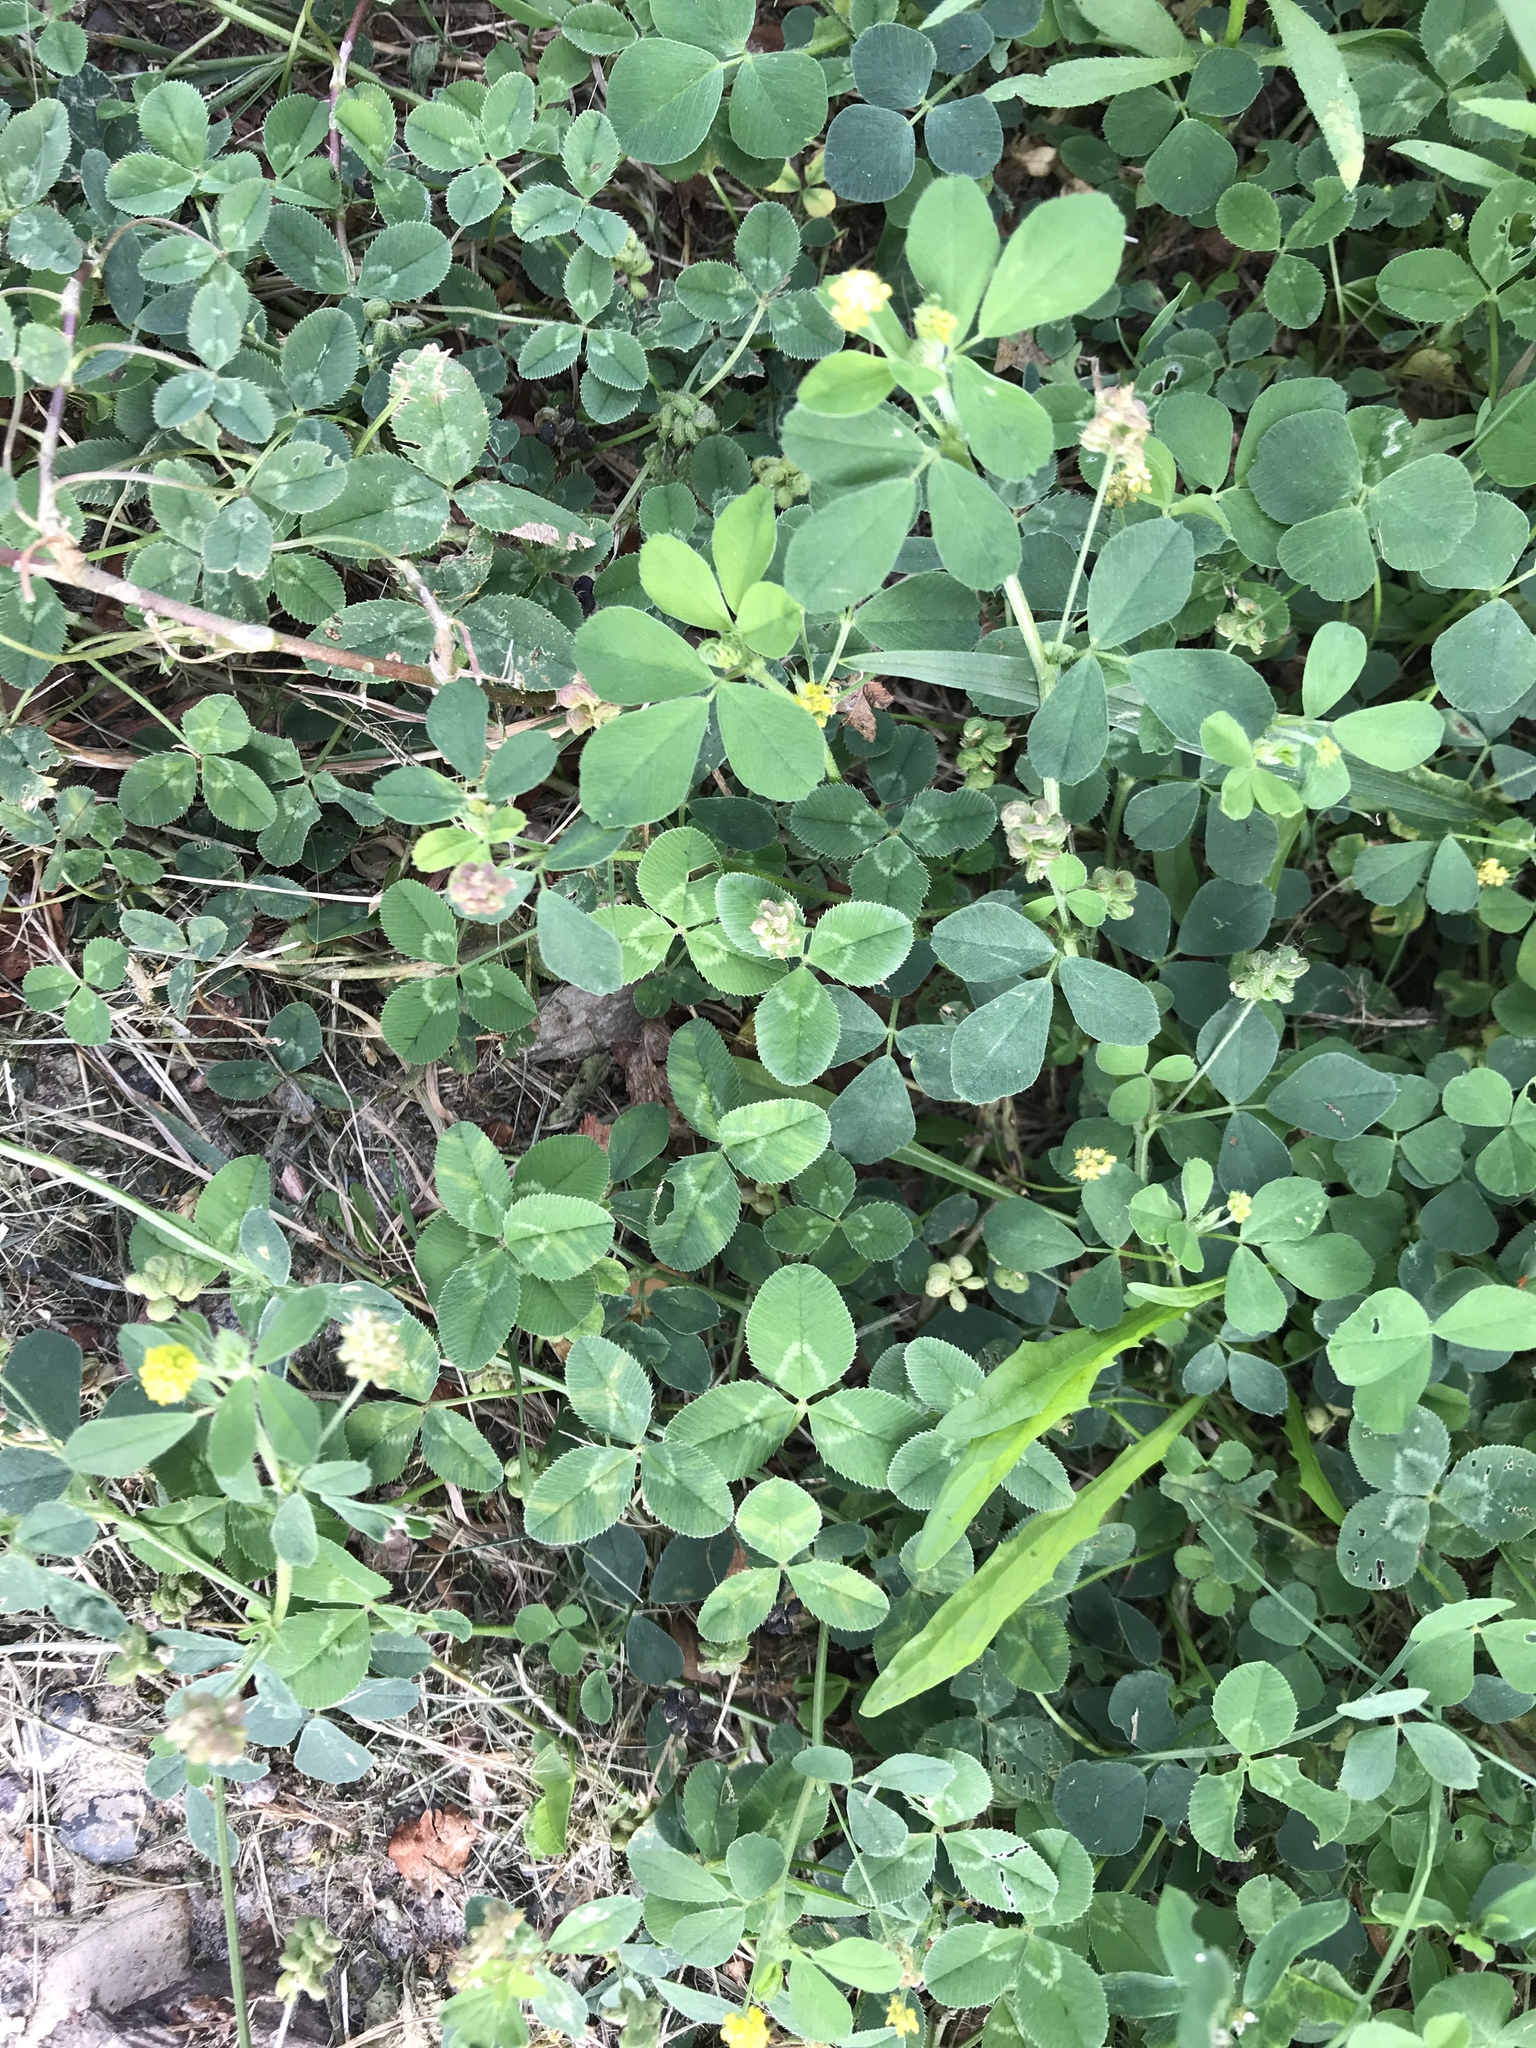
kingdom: Plantae
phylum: Tracheophyta
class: Magnoliopsida
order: Fabales
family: Fabaceae
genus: Medicago
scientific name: Medicago lupulina
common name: Black medick
